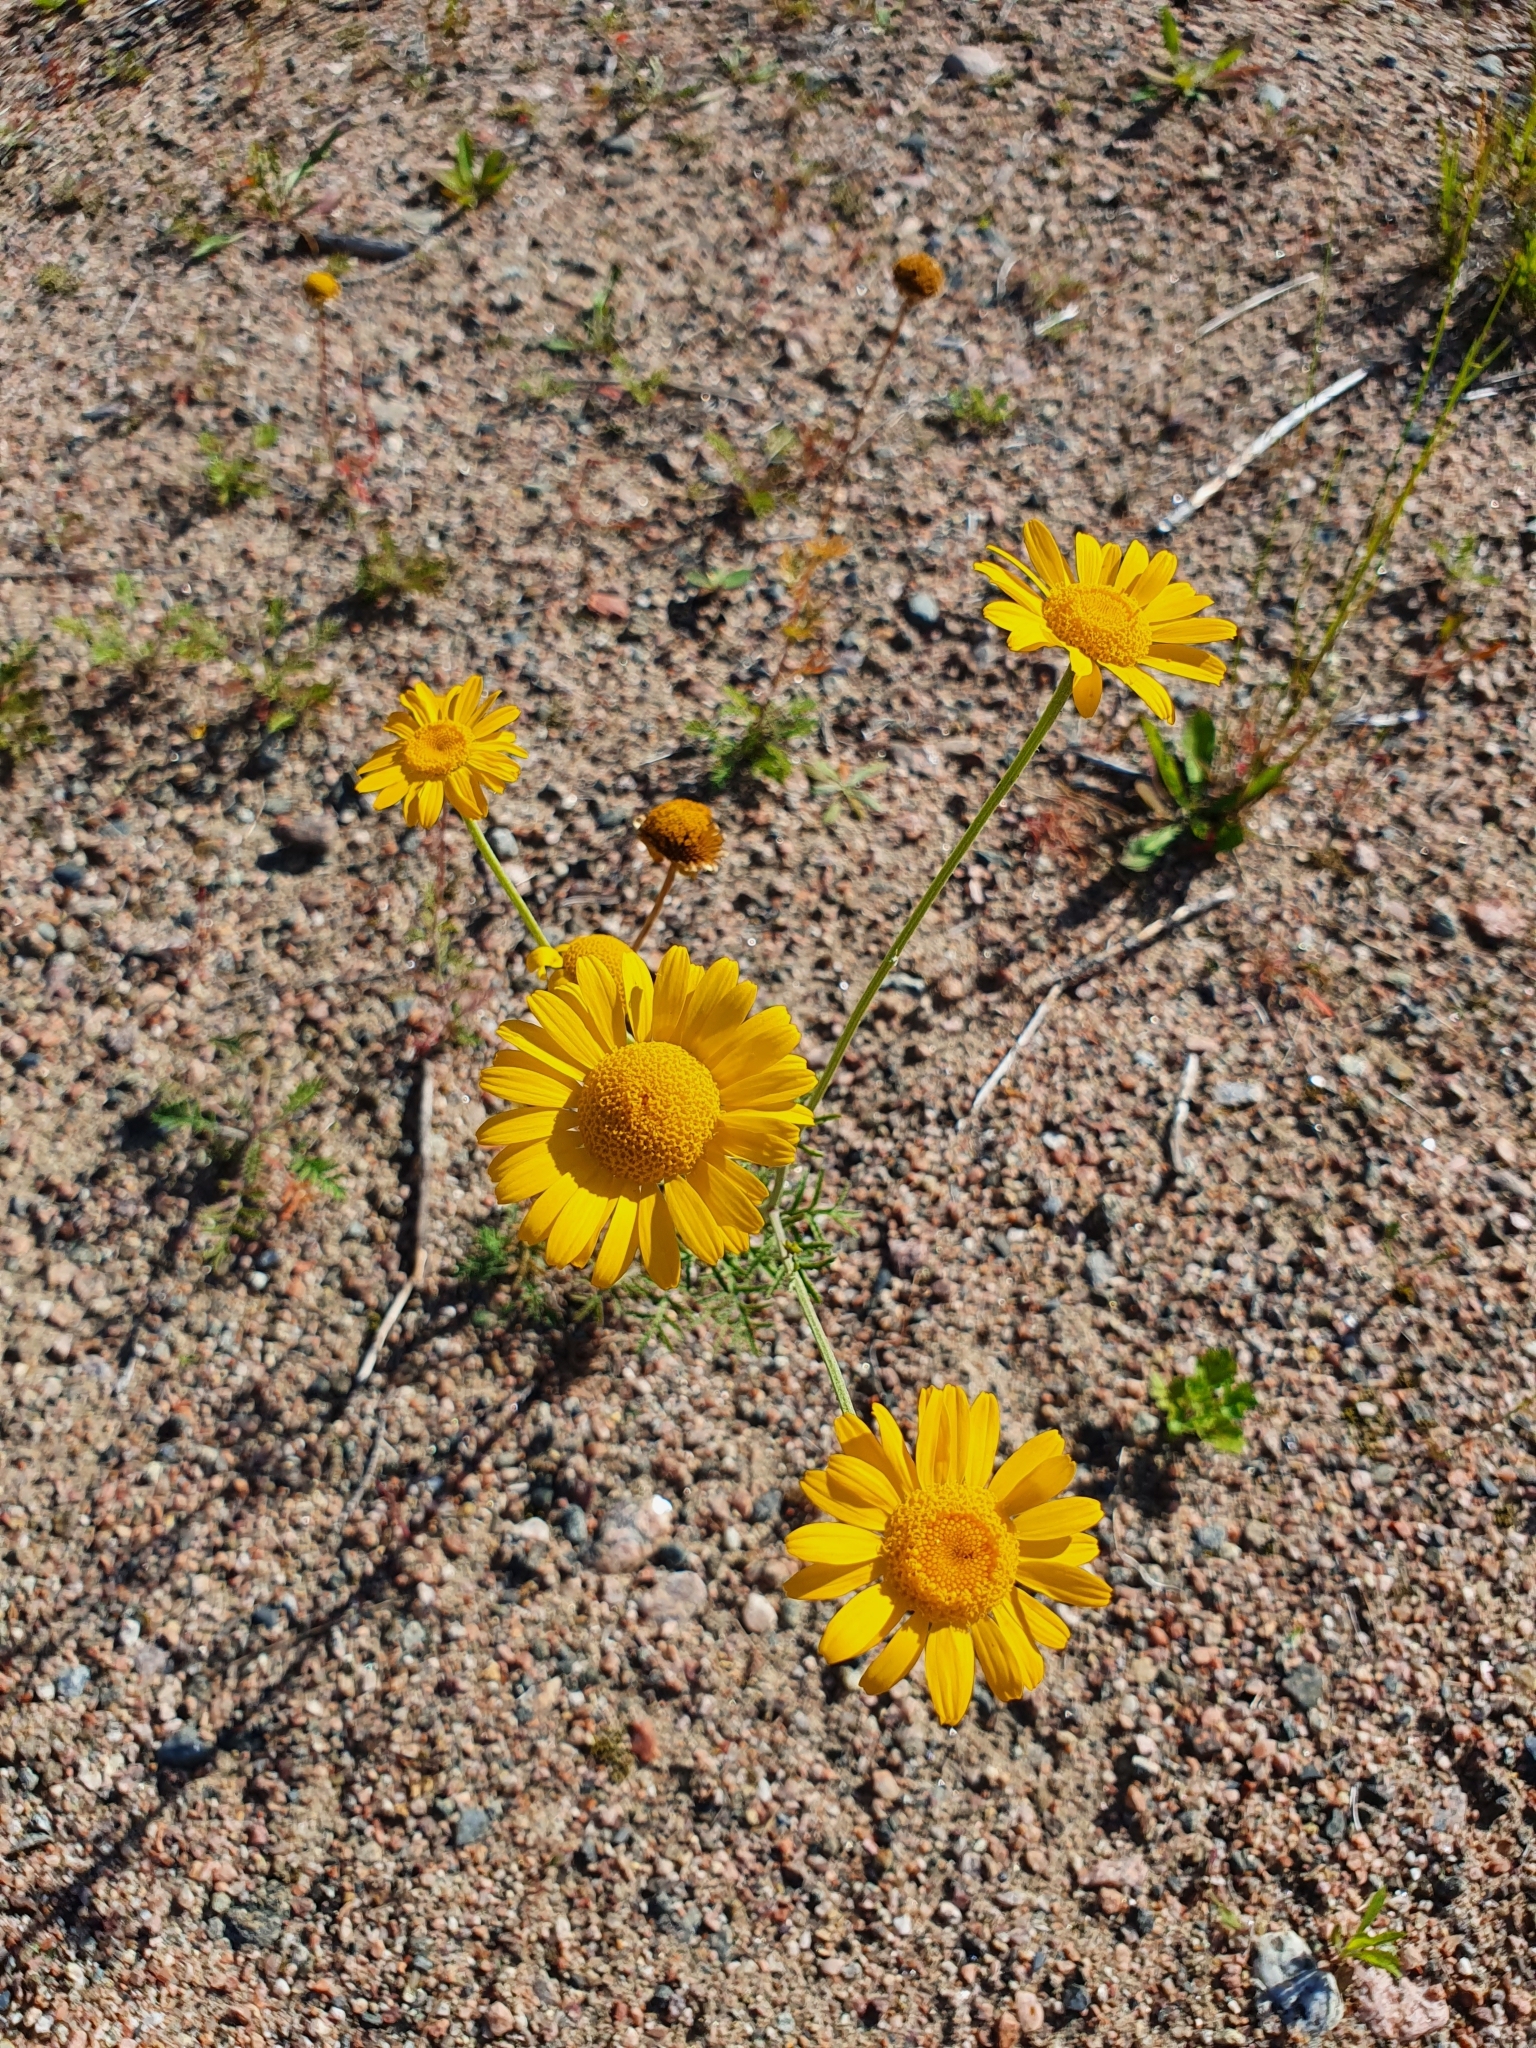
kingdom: Plantae
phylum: Tracheophyta
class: Magnoliopsida
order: Asterales
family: Asteraceae
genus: Cota
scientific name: Cota tinctoria
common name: Golden chamomile
